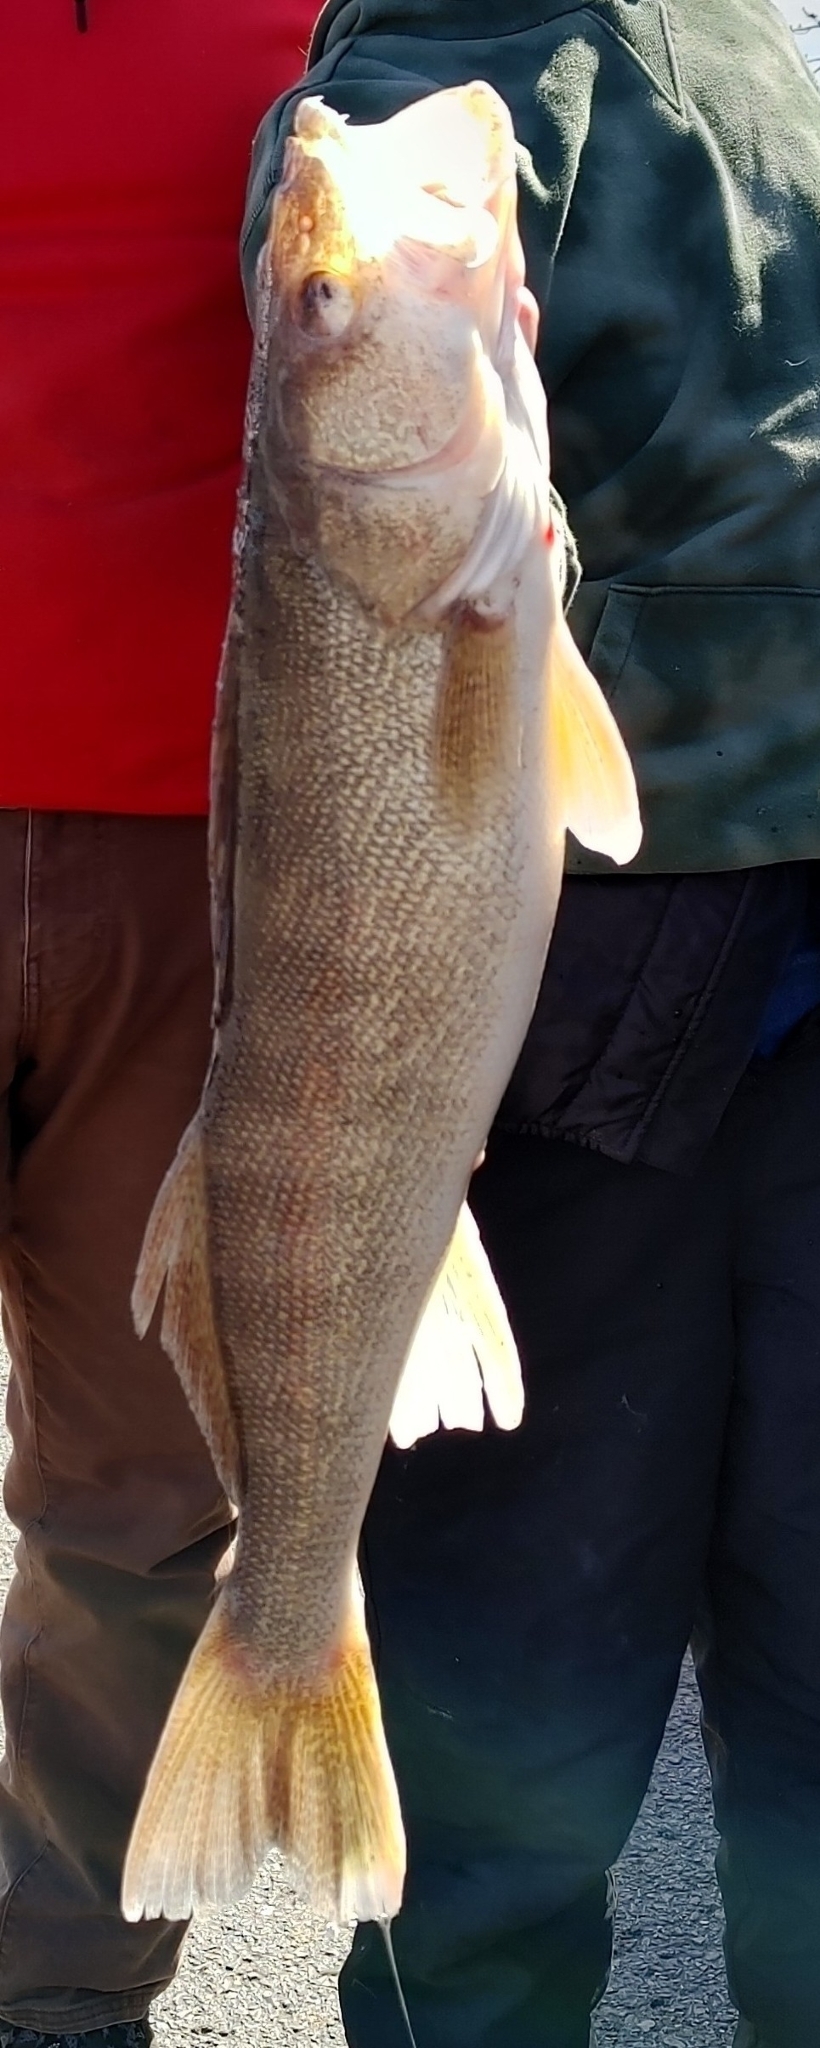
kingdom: Animalia
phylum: Chordata
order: Perciformes
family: Percidae
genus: Sander
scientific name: Sander vitreus
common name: Walleye
